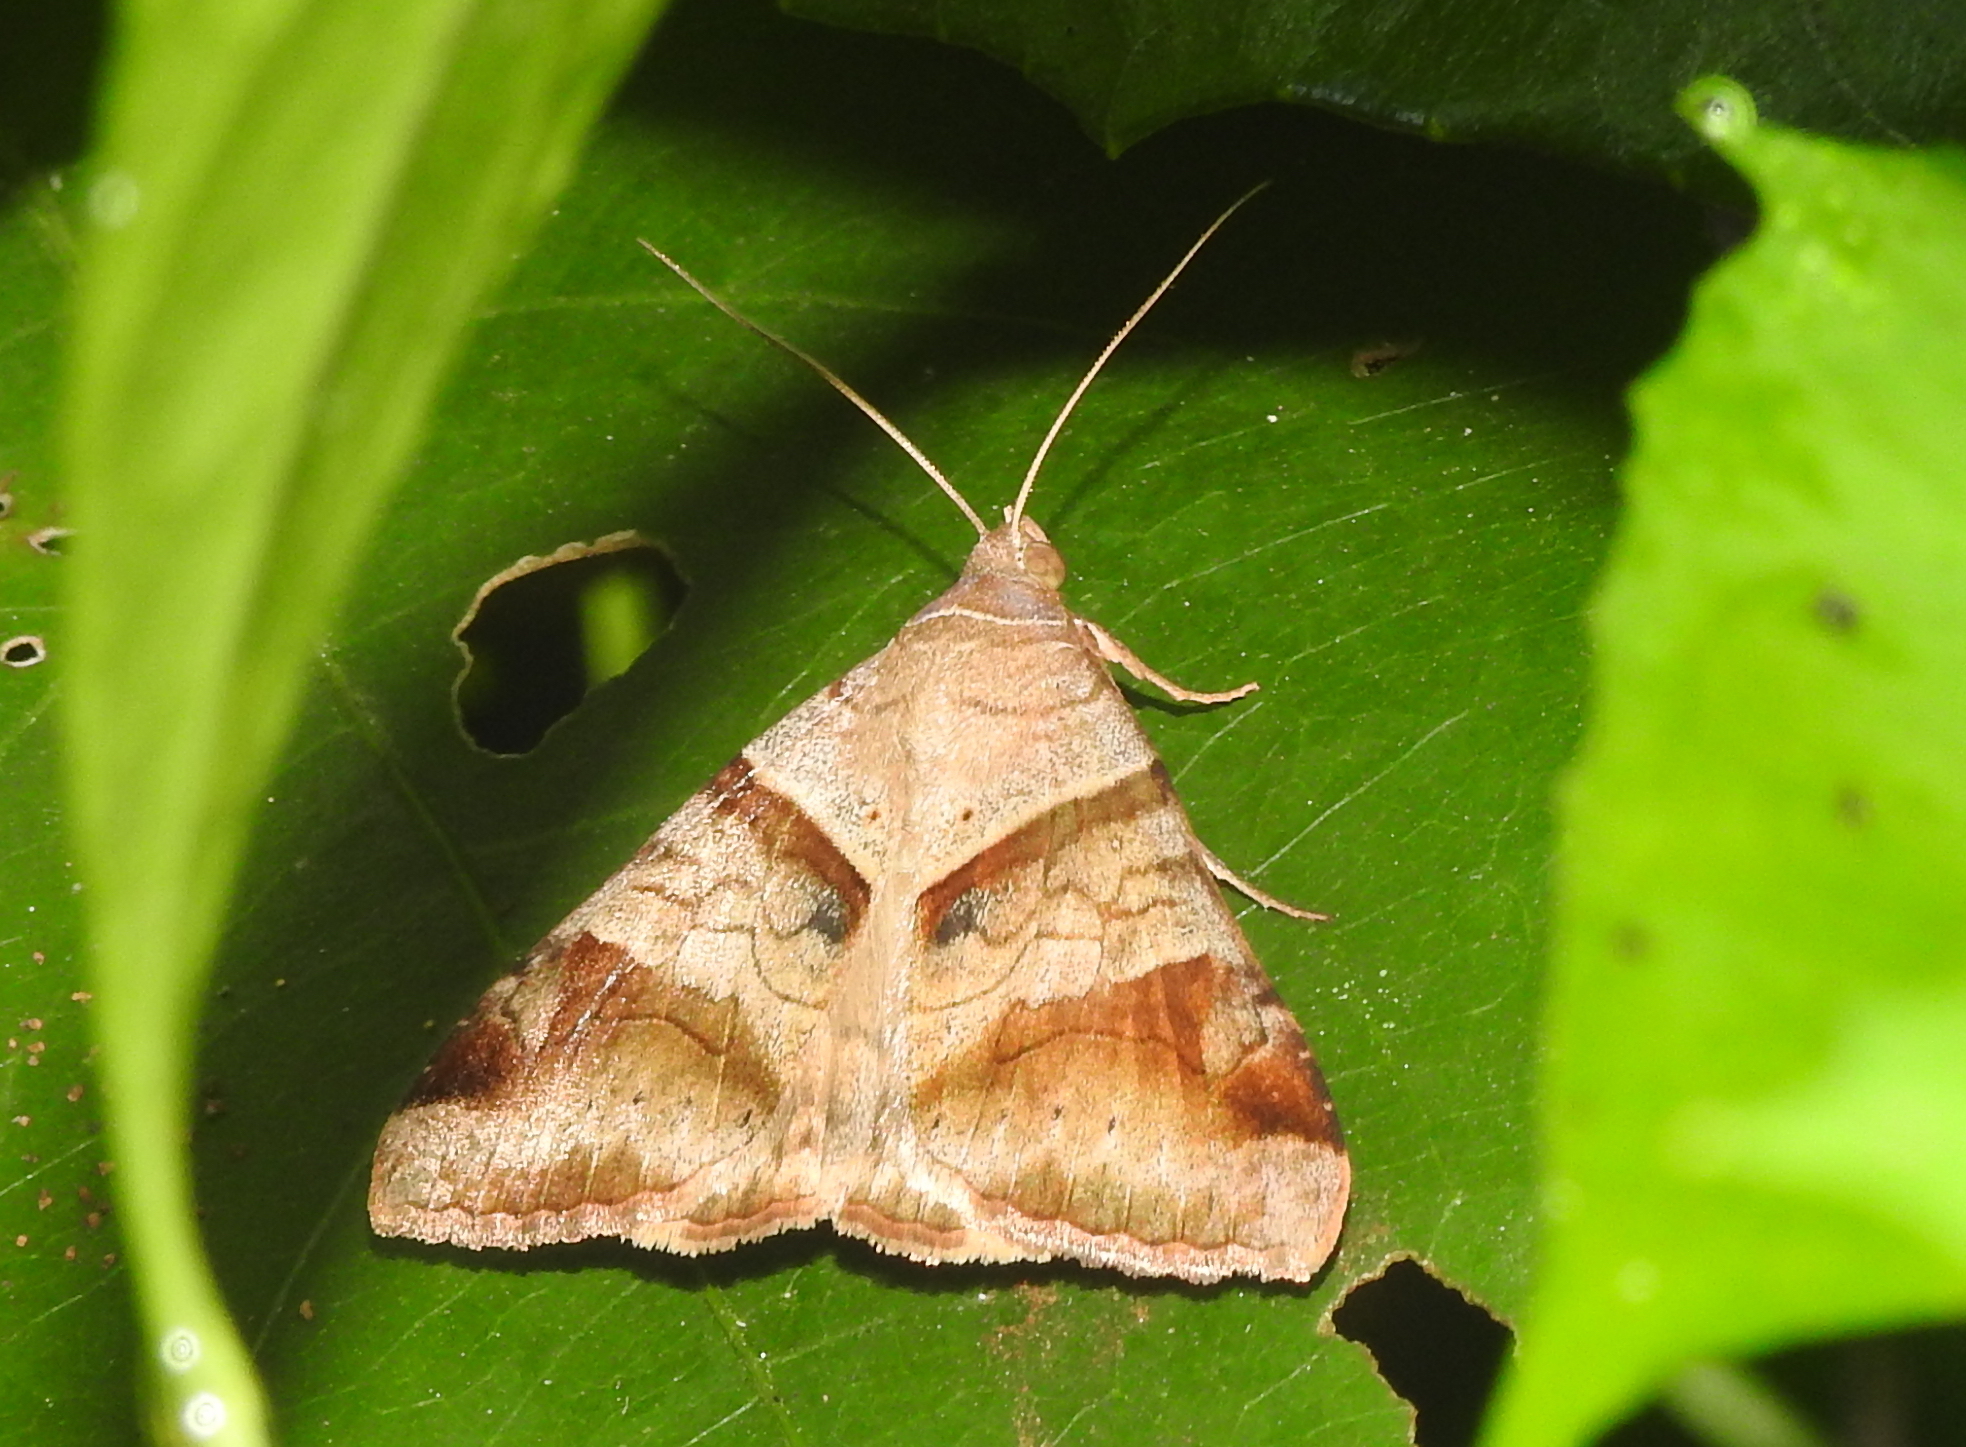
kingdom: Animalia
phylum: Arthropoda
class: Insecta
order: Lepidoptera
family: Erebidae
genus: Mocis
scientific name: Mocis undata
